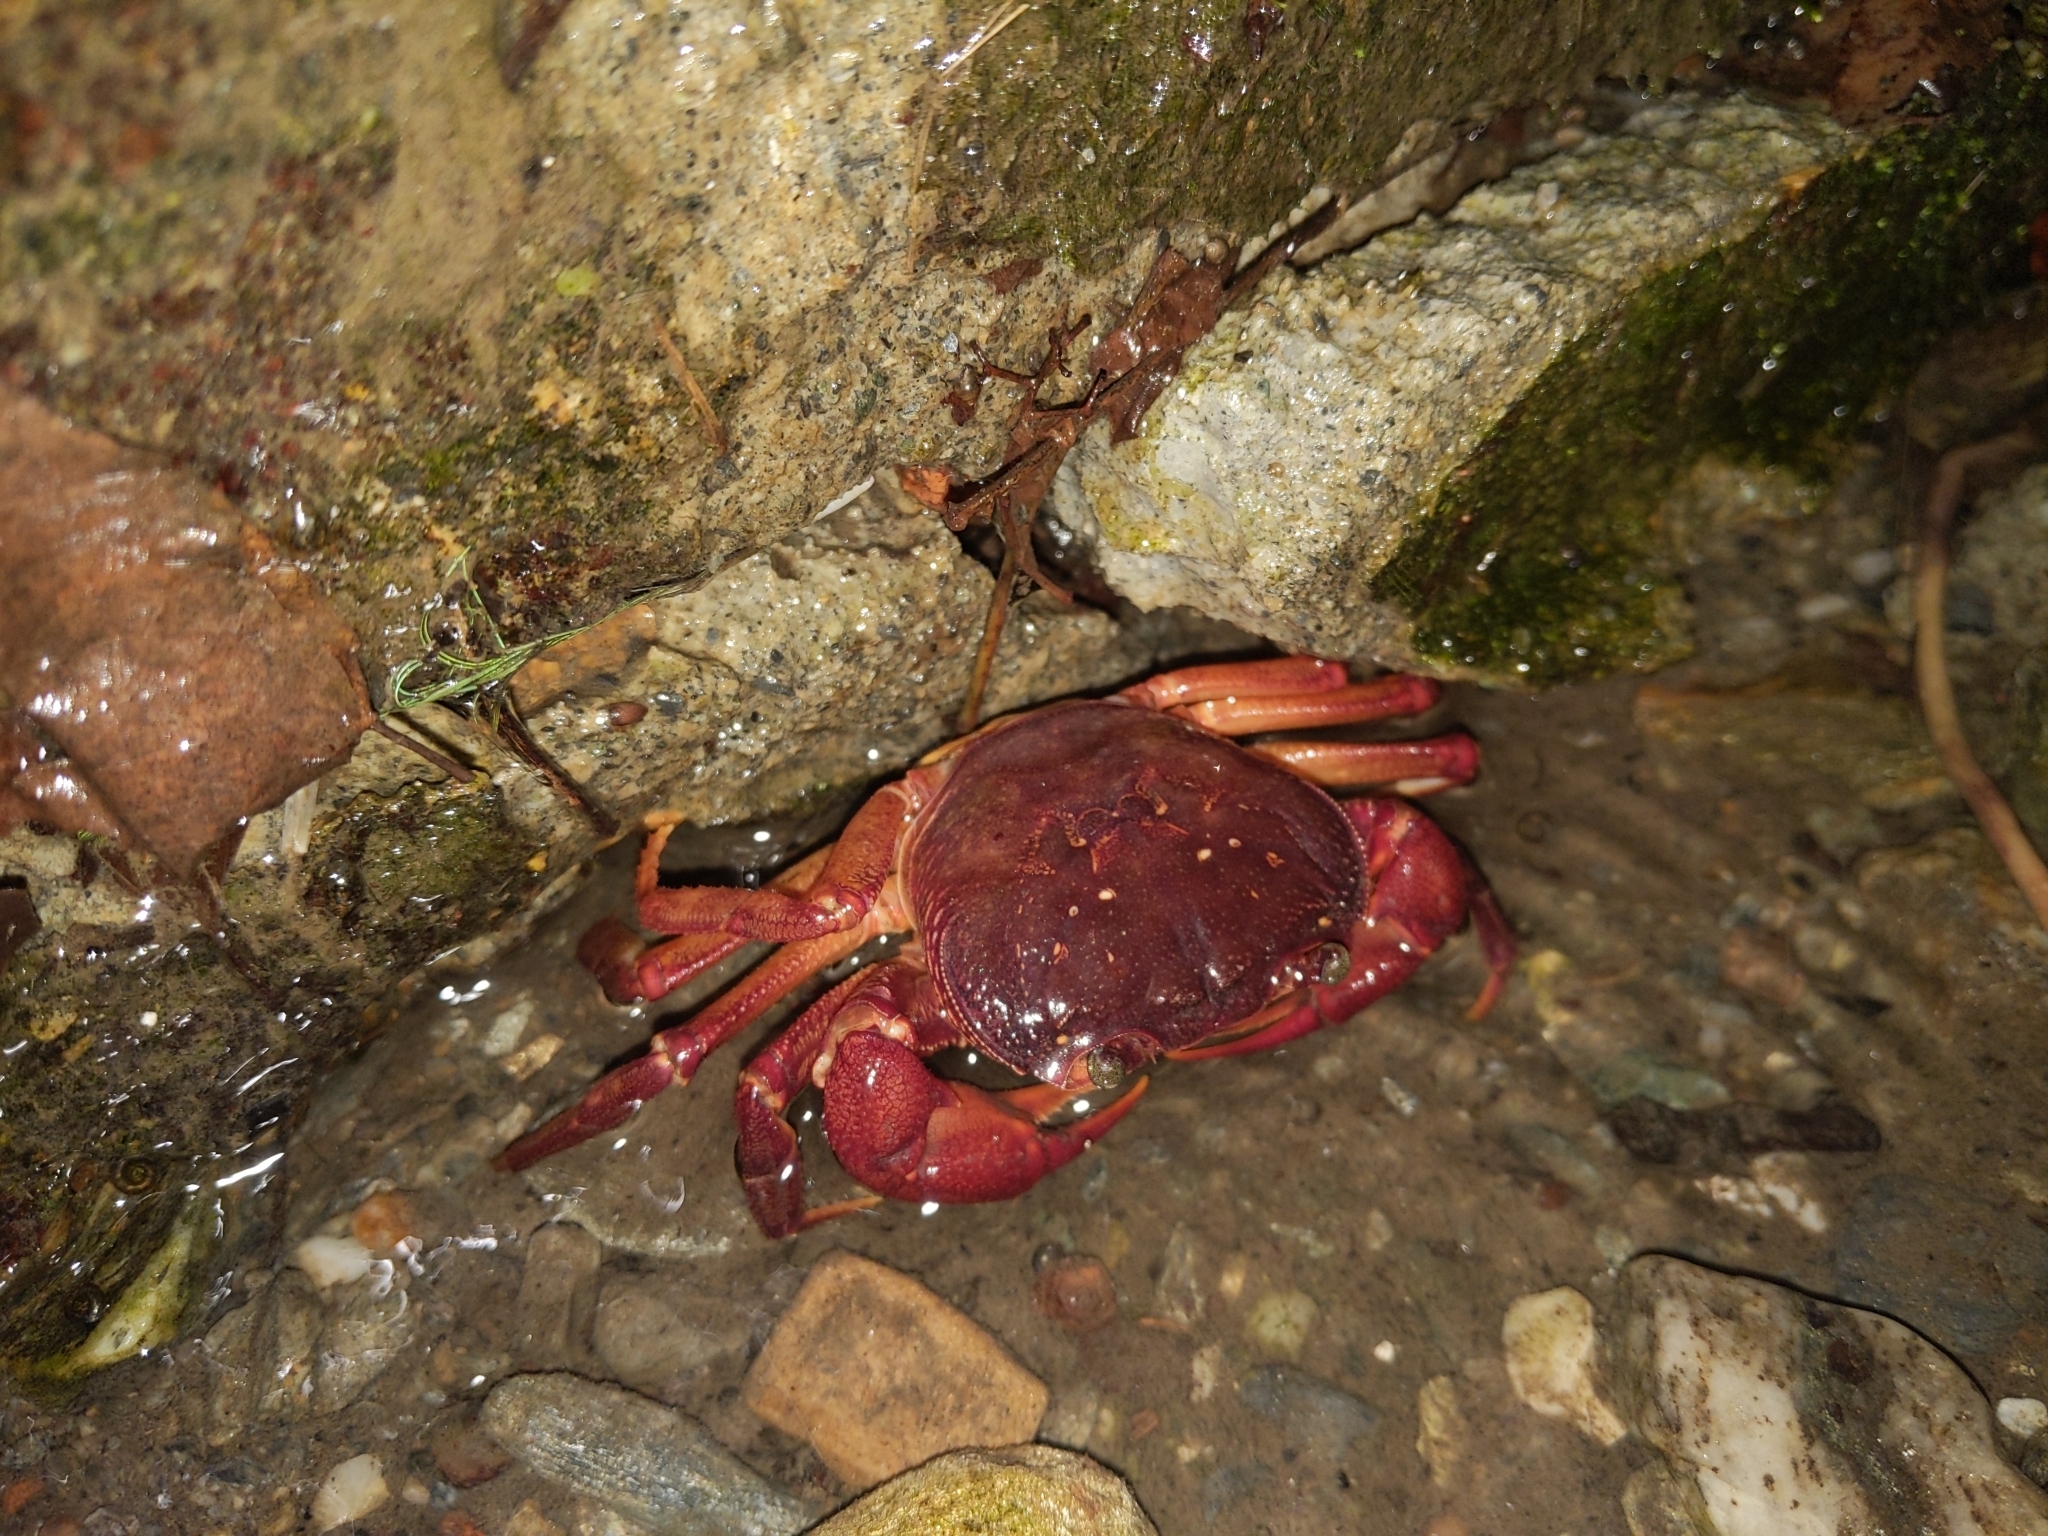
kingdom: Animalia
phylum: Arthropoda
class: Malacostraca
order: Decapoda
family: Potamidae
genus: Candidiopotamon
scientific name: Candidiopotamon rathbuni
